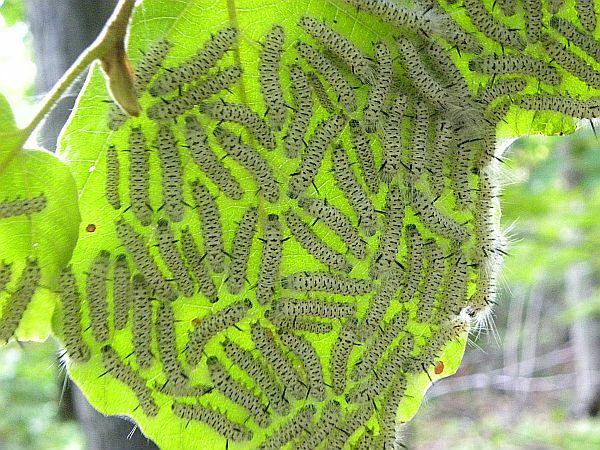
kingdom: Animalia
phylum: Arthropoda
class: Insecta
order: Lepidoptera
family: Erebidae
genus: Lophocampa
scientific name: Lophocampa caryae
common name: Hickory tussock moth
